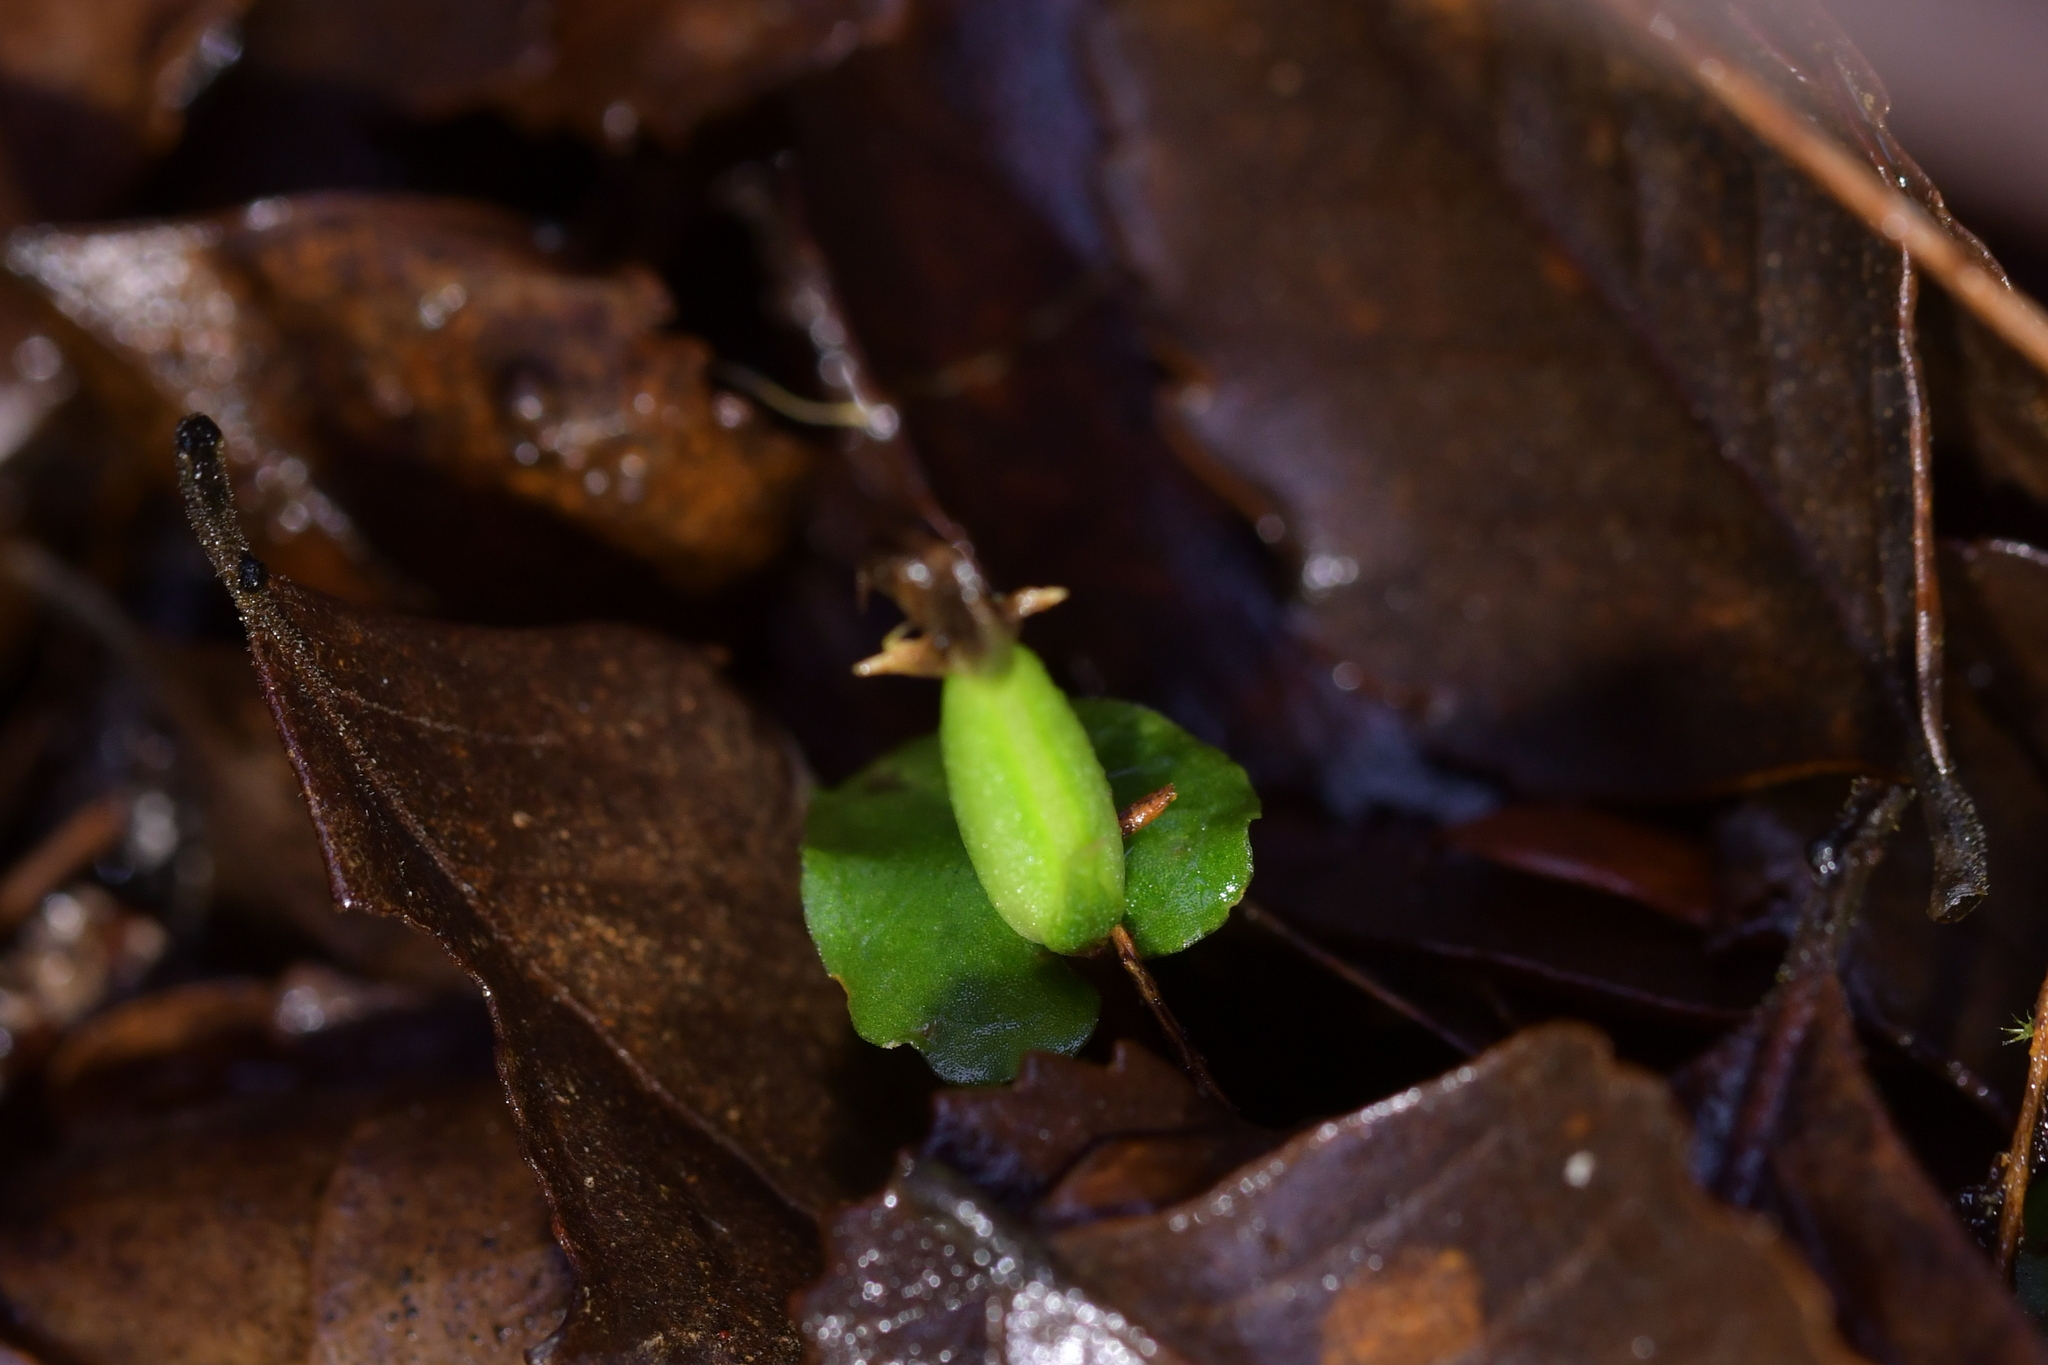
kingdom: Plantae
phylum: Tracheophyta
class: Liliopsida
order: Asparagales
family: Orchidaceae
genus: Corybas
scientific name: Corybas cheesemanii
